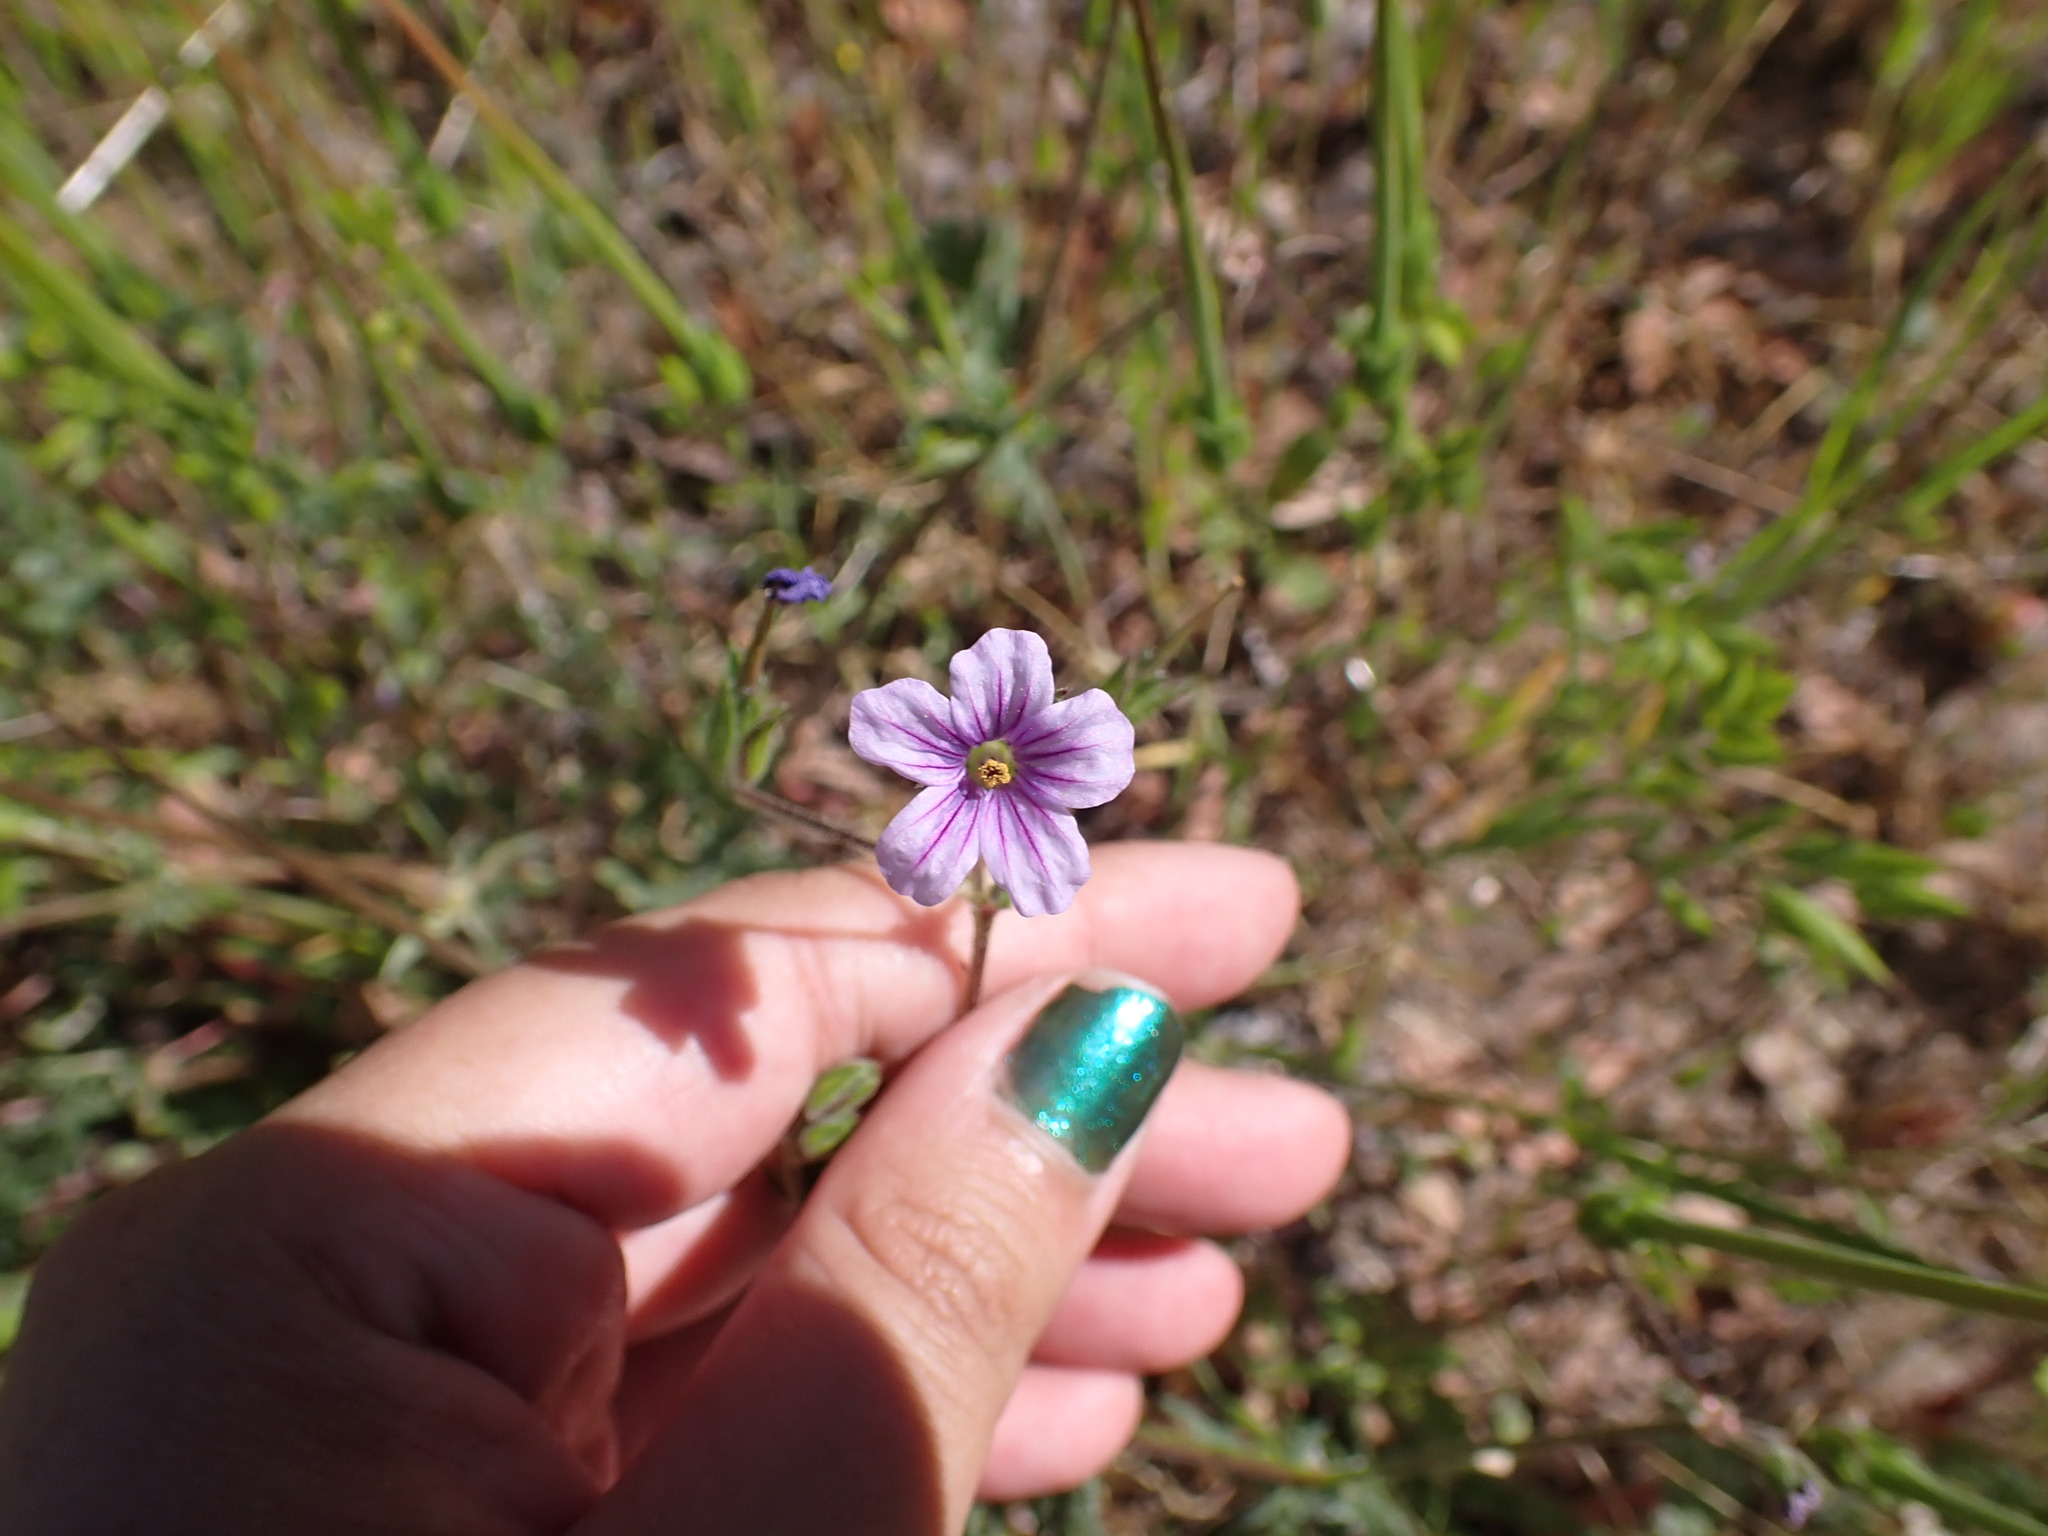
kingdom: Plantae
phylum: Tracheophyta
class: Magnoliopsida
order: Geraniales
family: Geraniaceae
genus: Erodium
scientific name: Erodium botrys
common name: Mediterranean stork's-bill
